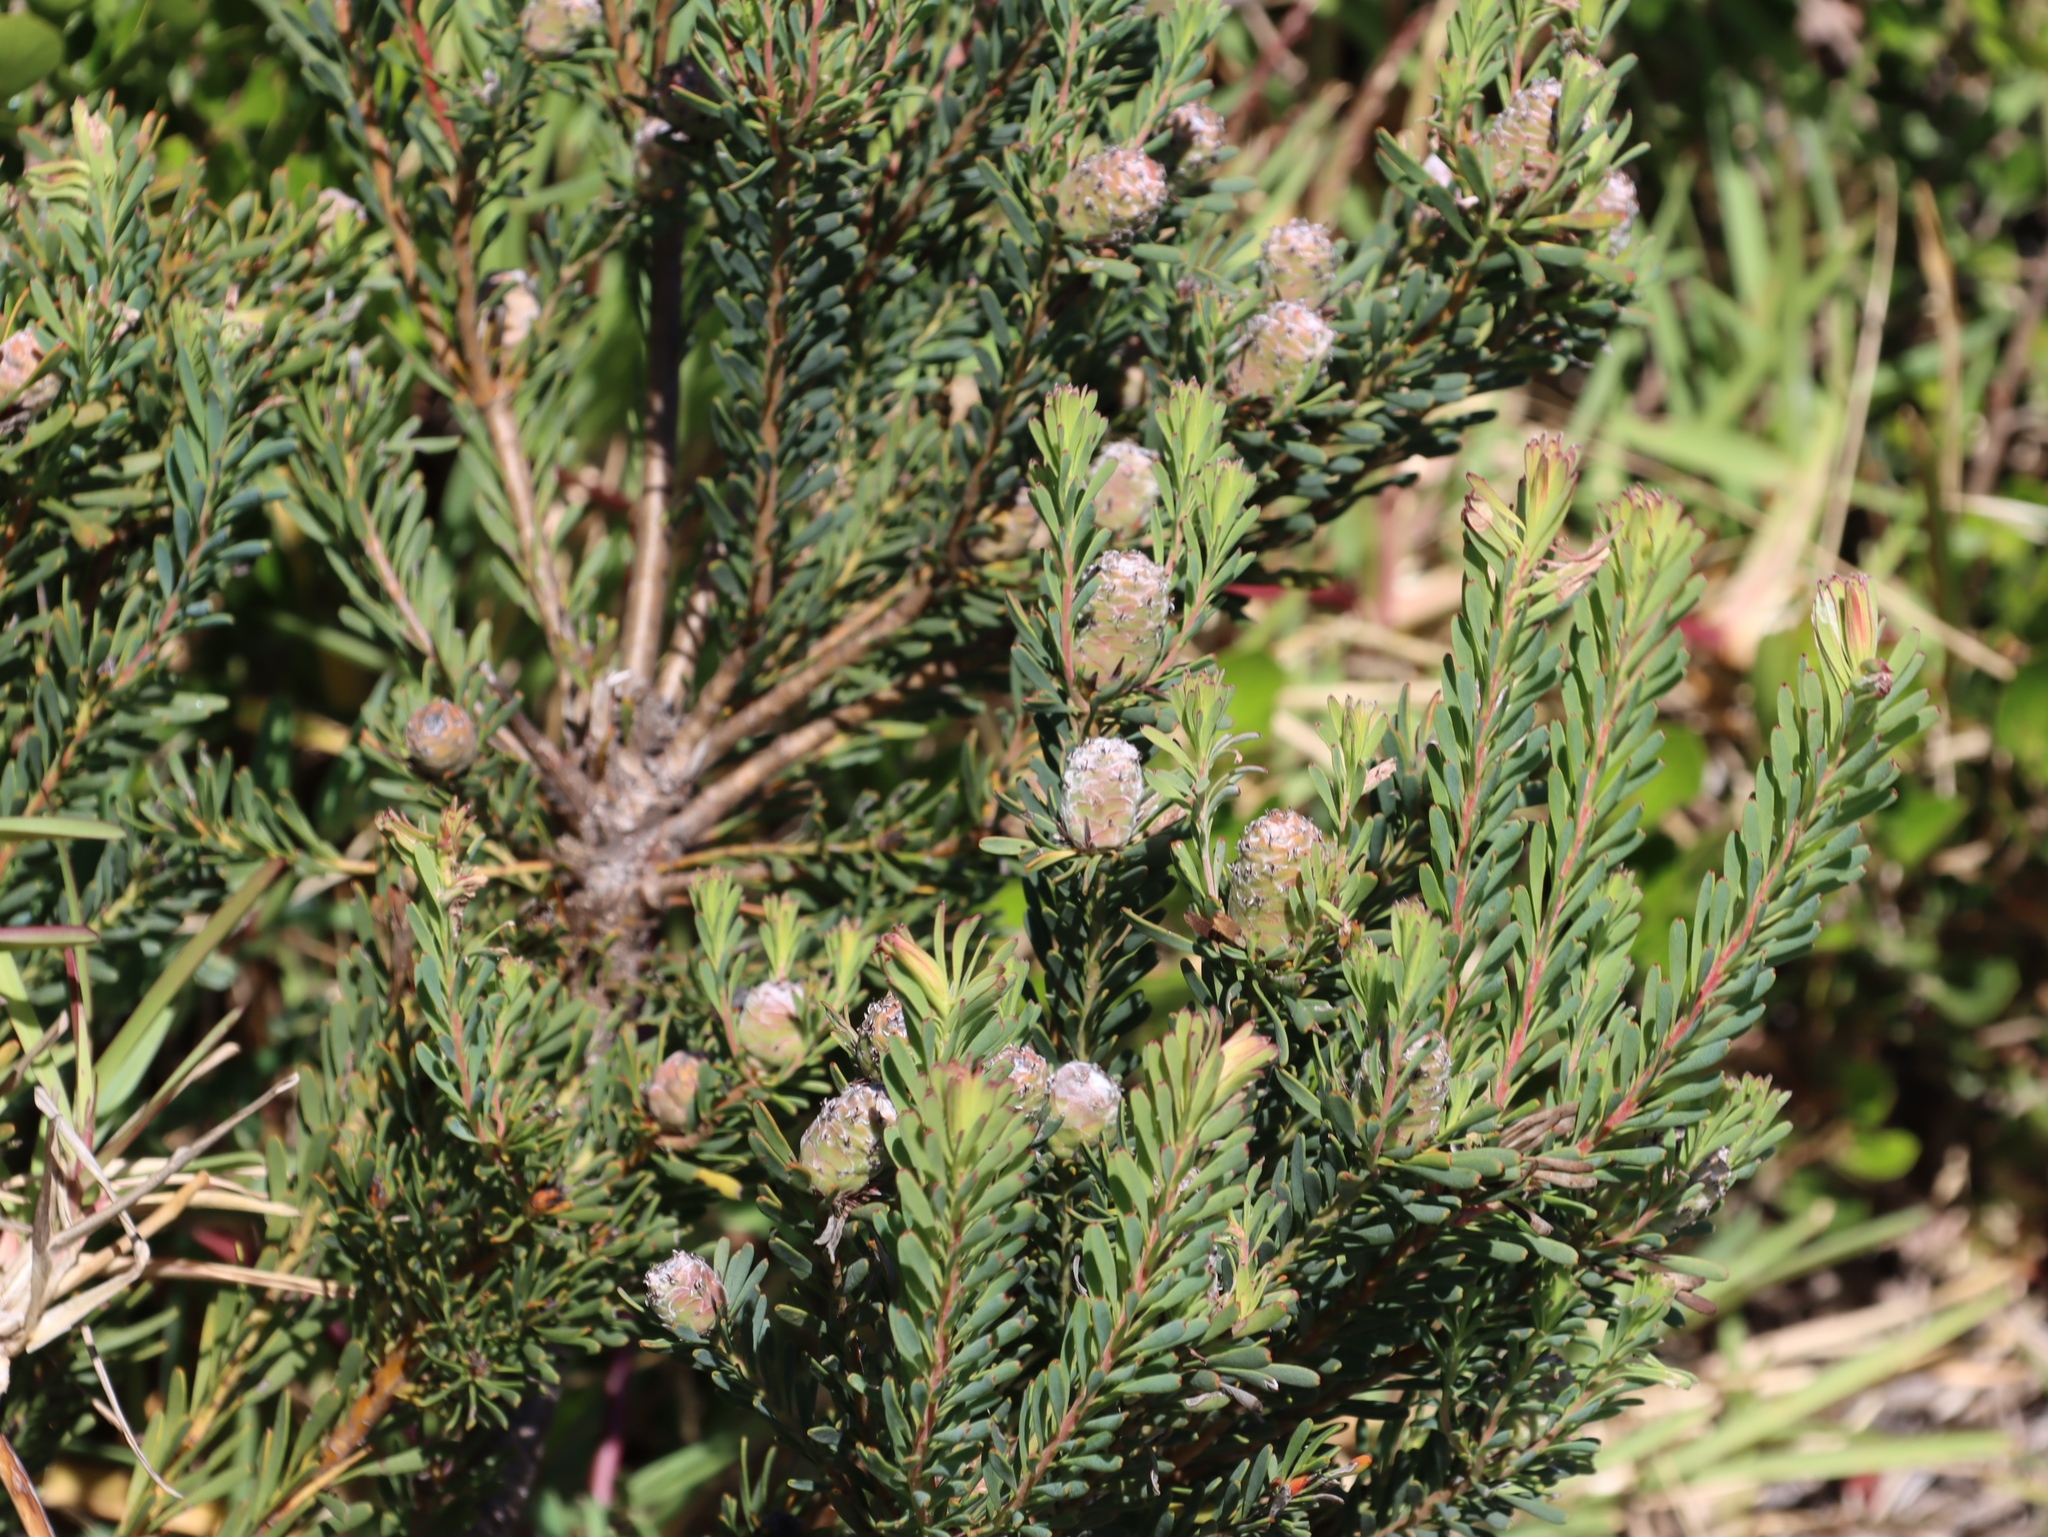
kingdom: Plantae
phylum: Tracheophyta
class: Magnoliopsida
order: Proteales
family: Proteaceae
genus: Leucadendron
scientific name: Leucadendron linifolium
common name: Line-leaf conebush
